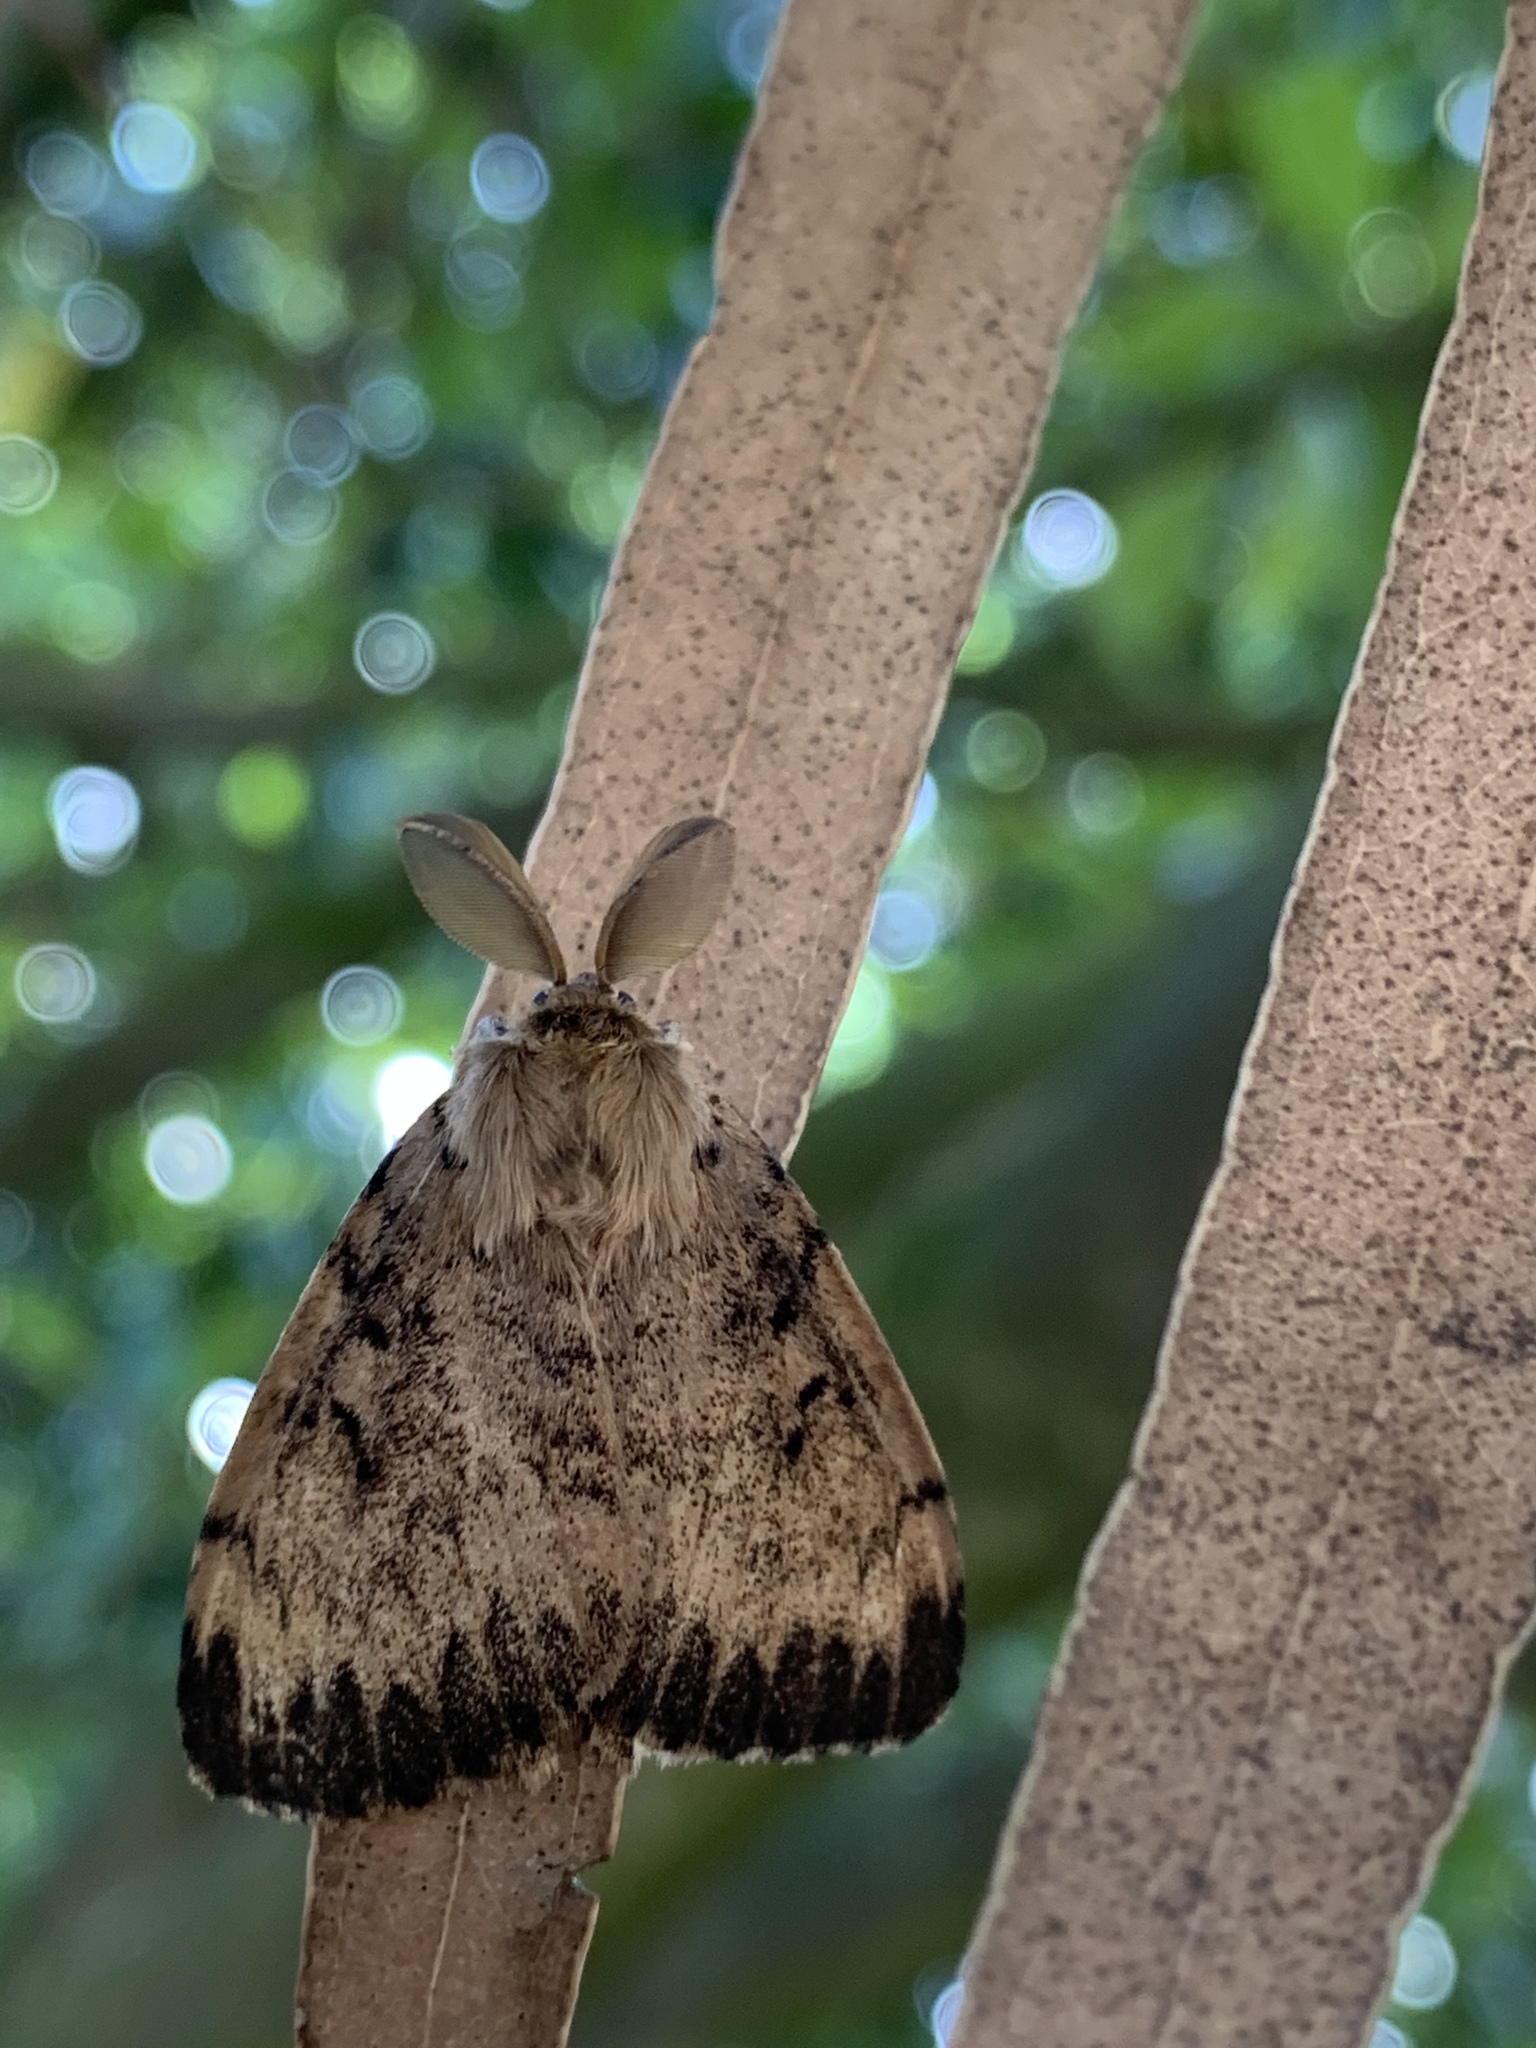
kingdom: Animalia
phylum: Arthropoda
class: Insecta
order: Lepidoptera
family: Erebidae
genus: Lymantria
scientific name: Lymantria dispar
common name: Gypsy moth
